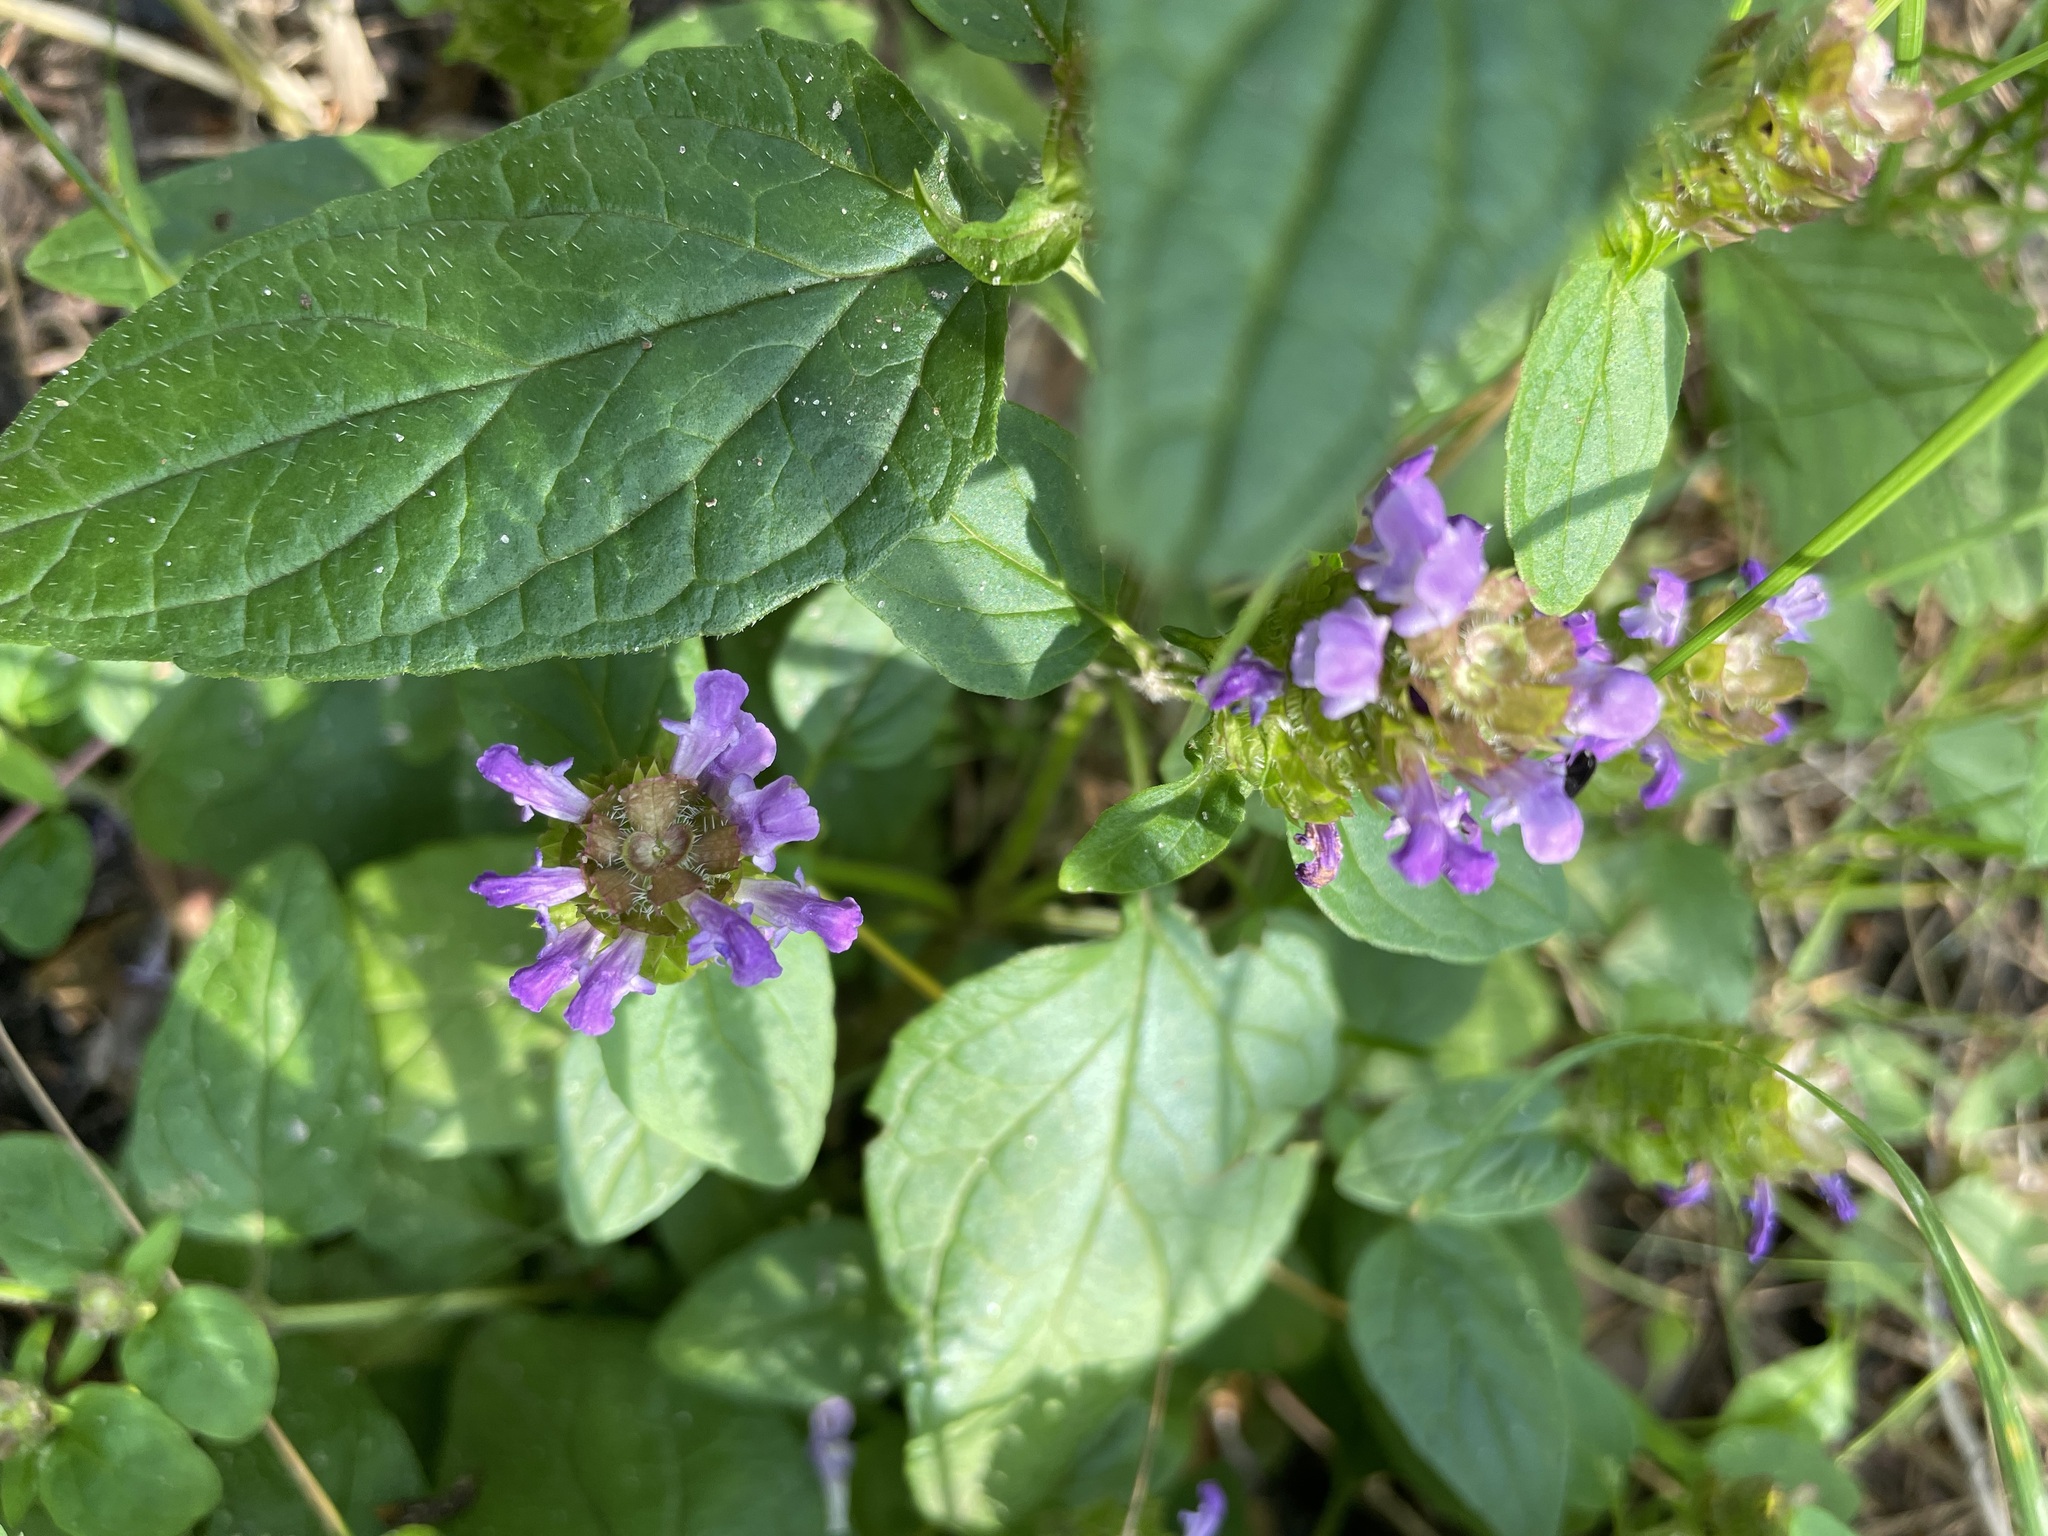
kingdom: Plantae
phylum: Tracheophyta
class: Magnoliopsida
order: Lamiales
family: Lamiaceae
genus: Prunella
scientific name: Prunella vulgaris
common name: Heal-all
